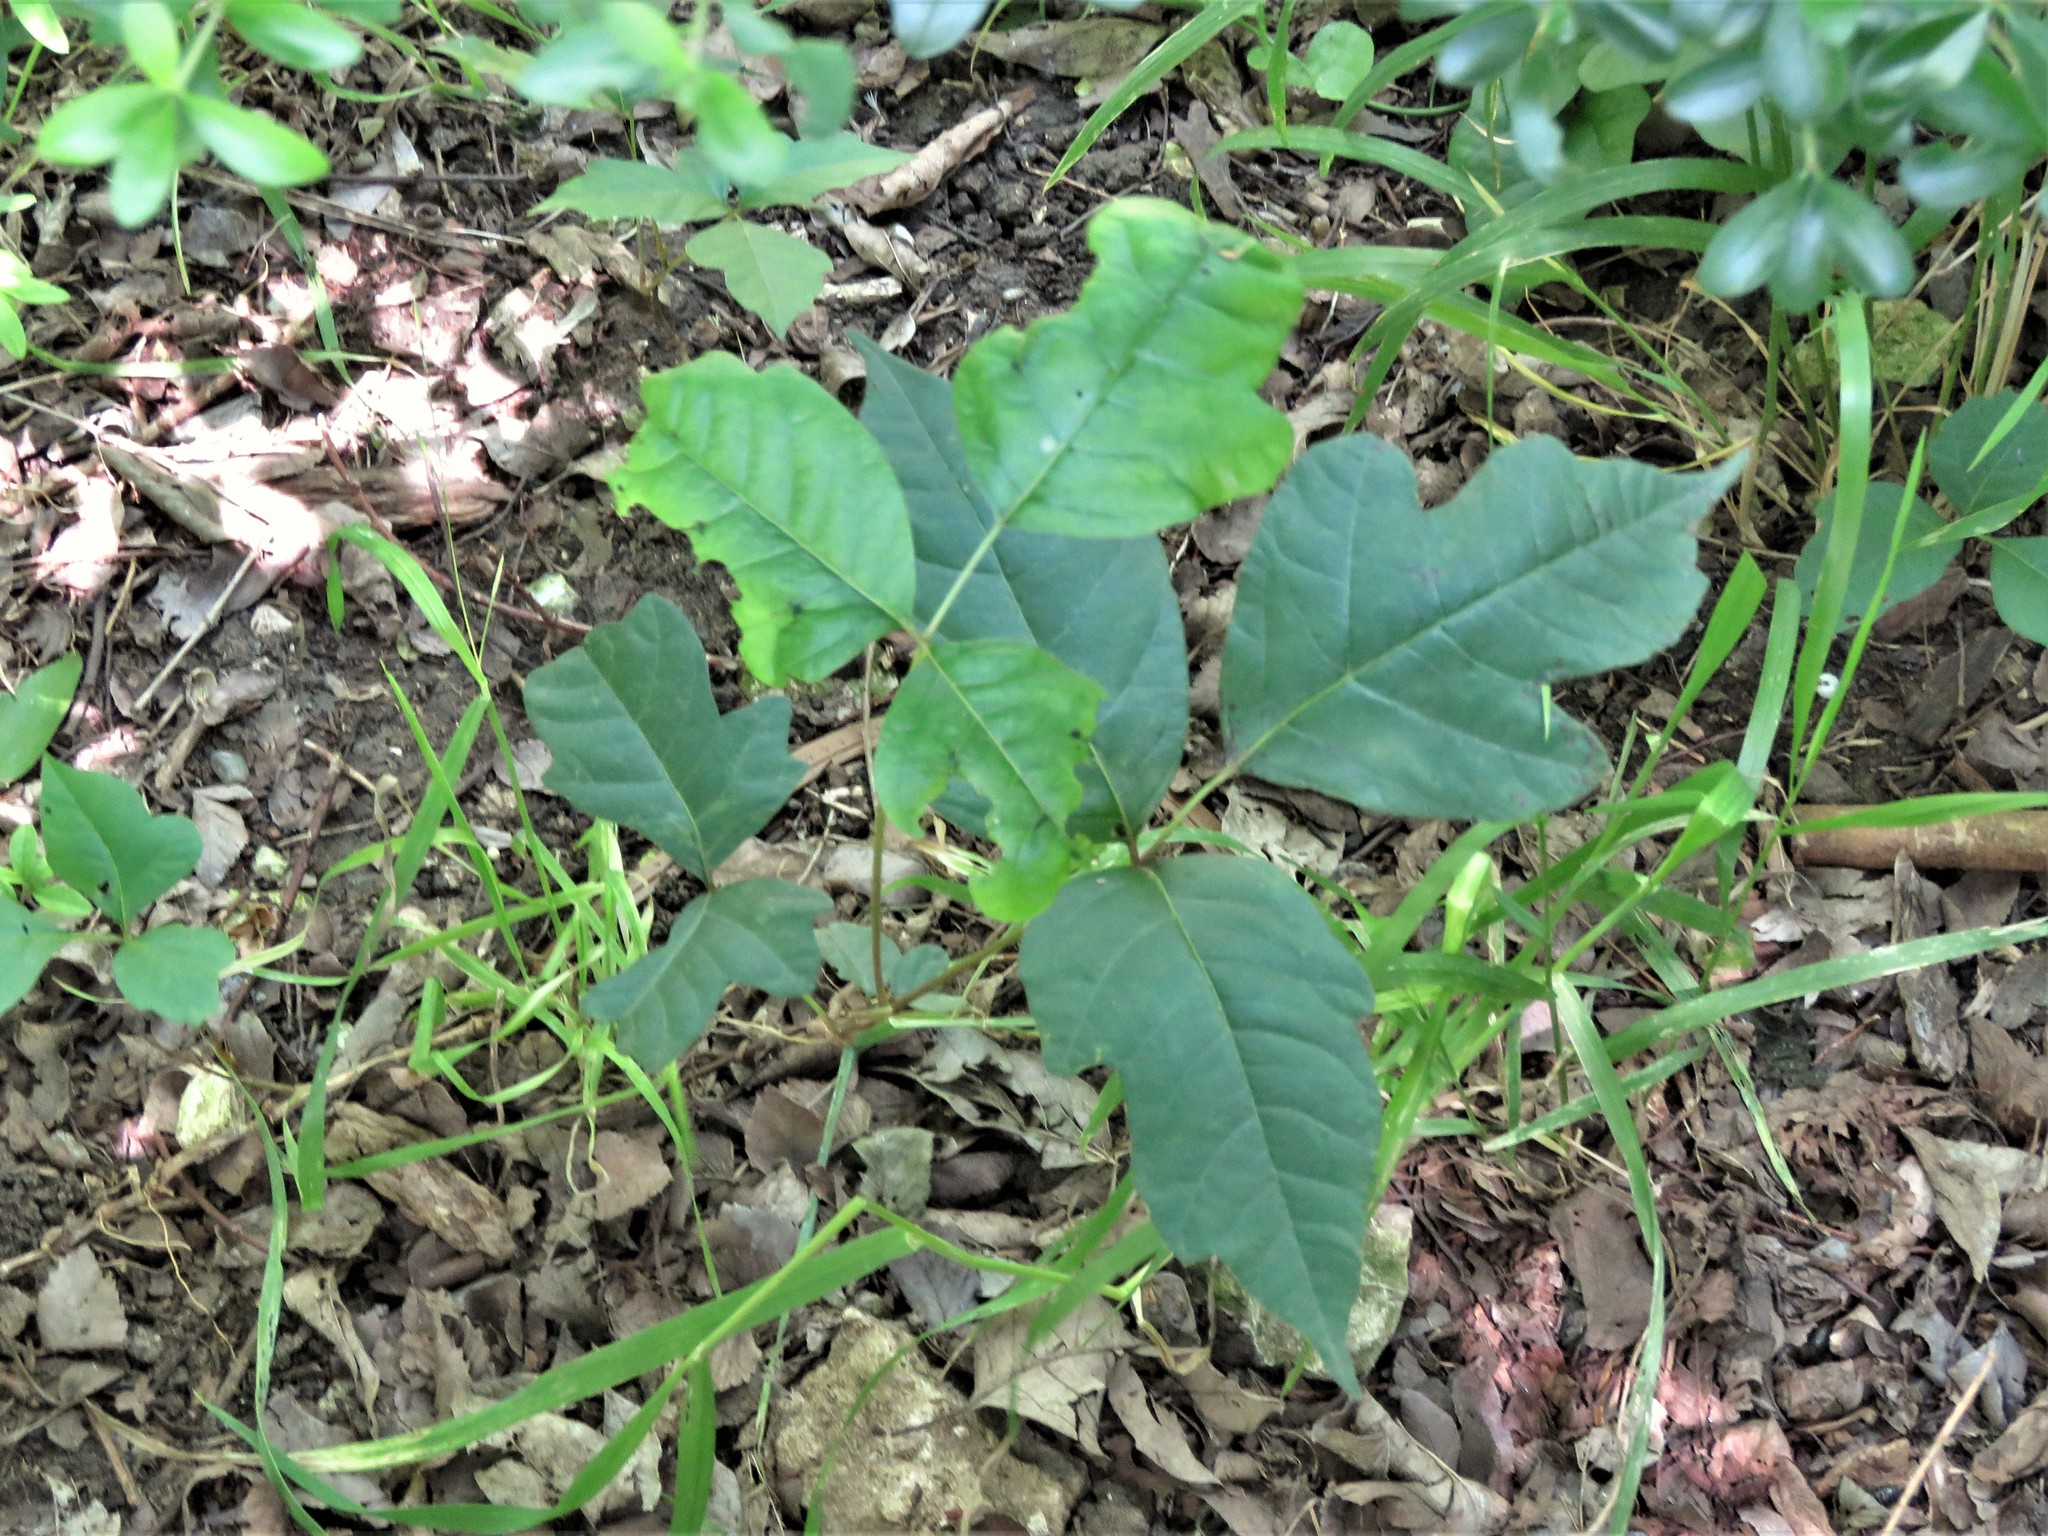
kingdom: Plantae
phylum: Tracheophyta
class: Magnoliopsida
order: Sapindales
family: Anacardiaceae
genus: Toxicodendron
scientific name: Toxicodendron radicans
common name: Poison ivy
